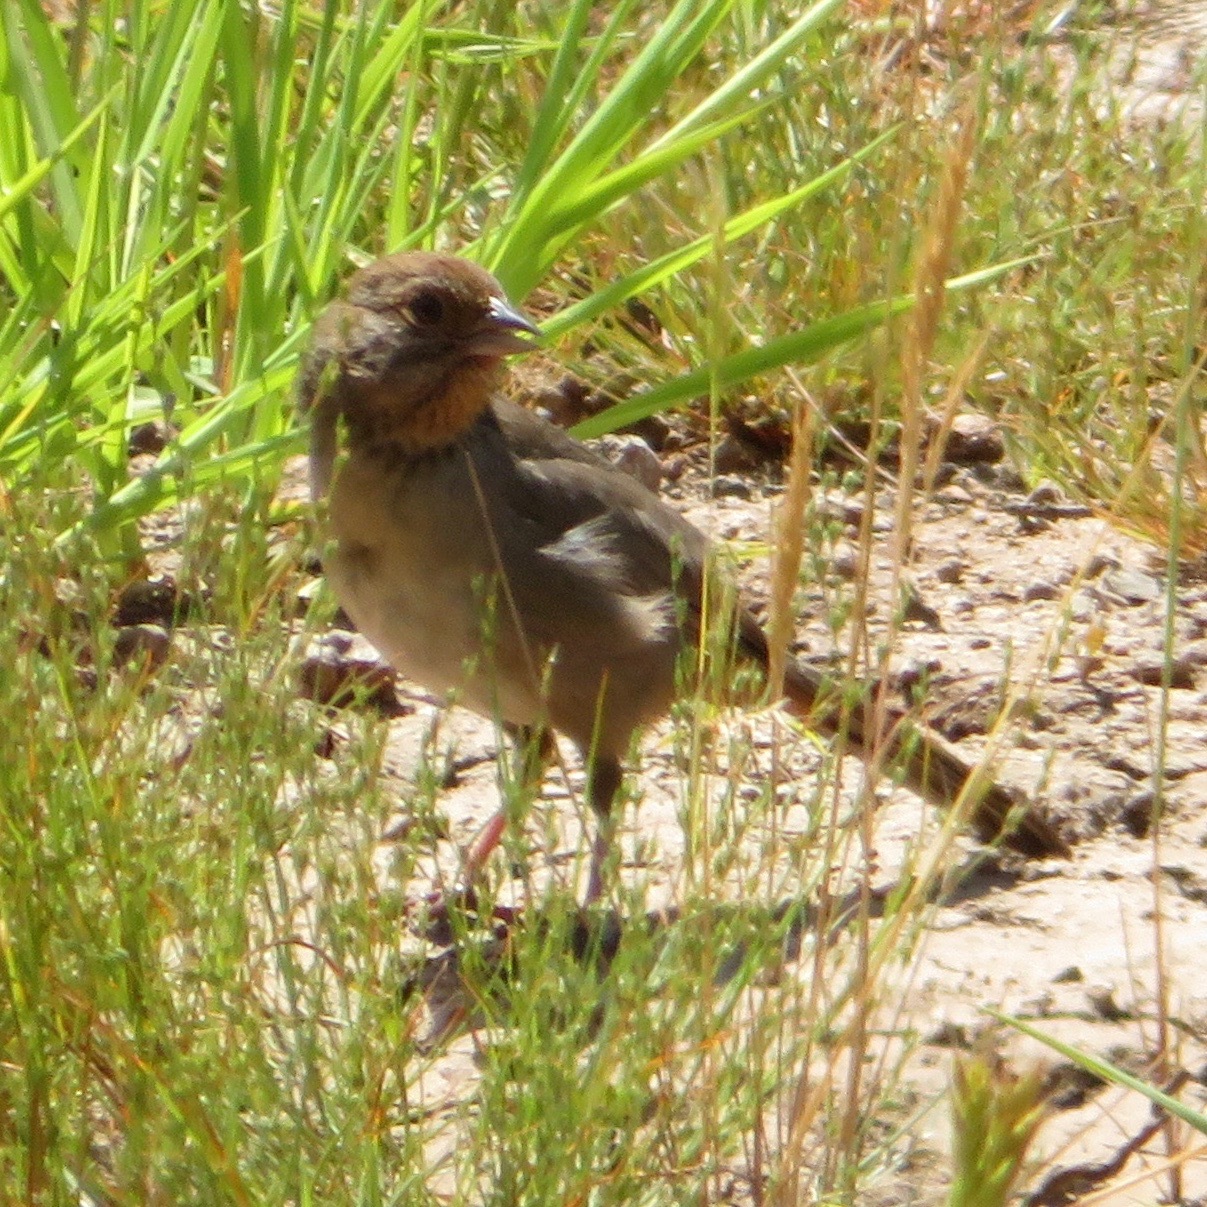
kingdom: Animalia
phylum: Chordata
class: Aves
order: Passeriformes
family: Passerellidae
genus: Melozone
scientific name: Melozone crissalis
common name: California towhee
